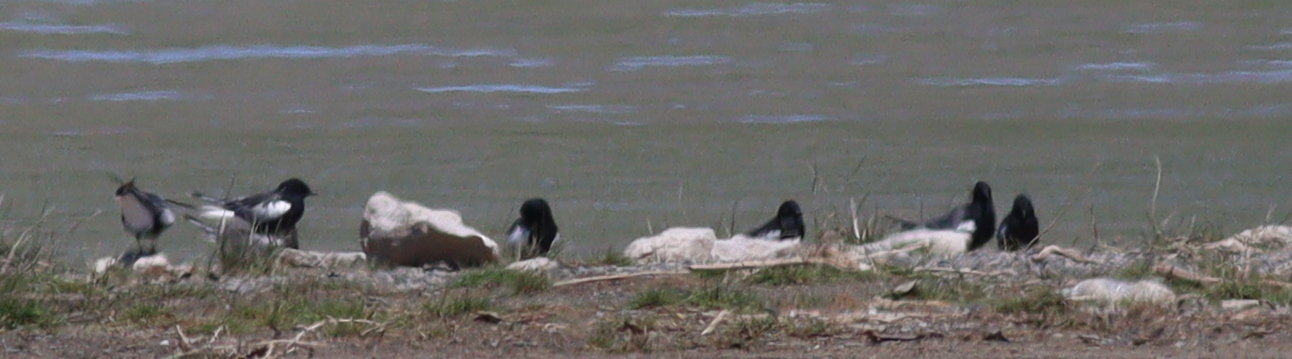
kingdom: Animalia
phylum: Chordata
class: Aves
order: Charadriiformes
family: Laridae
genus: Chlidonias
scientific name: Chlidonias leucopterus
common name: White-winged tern
